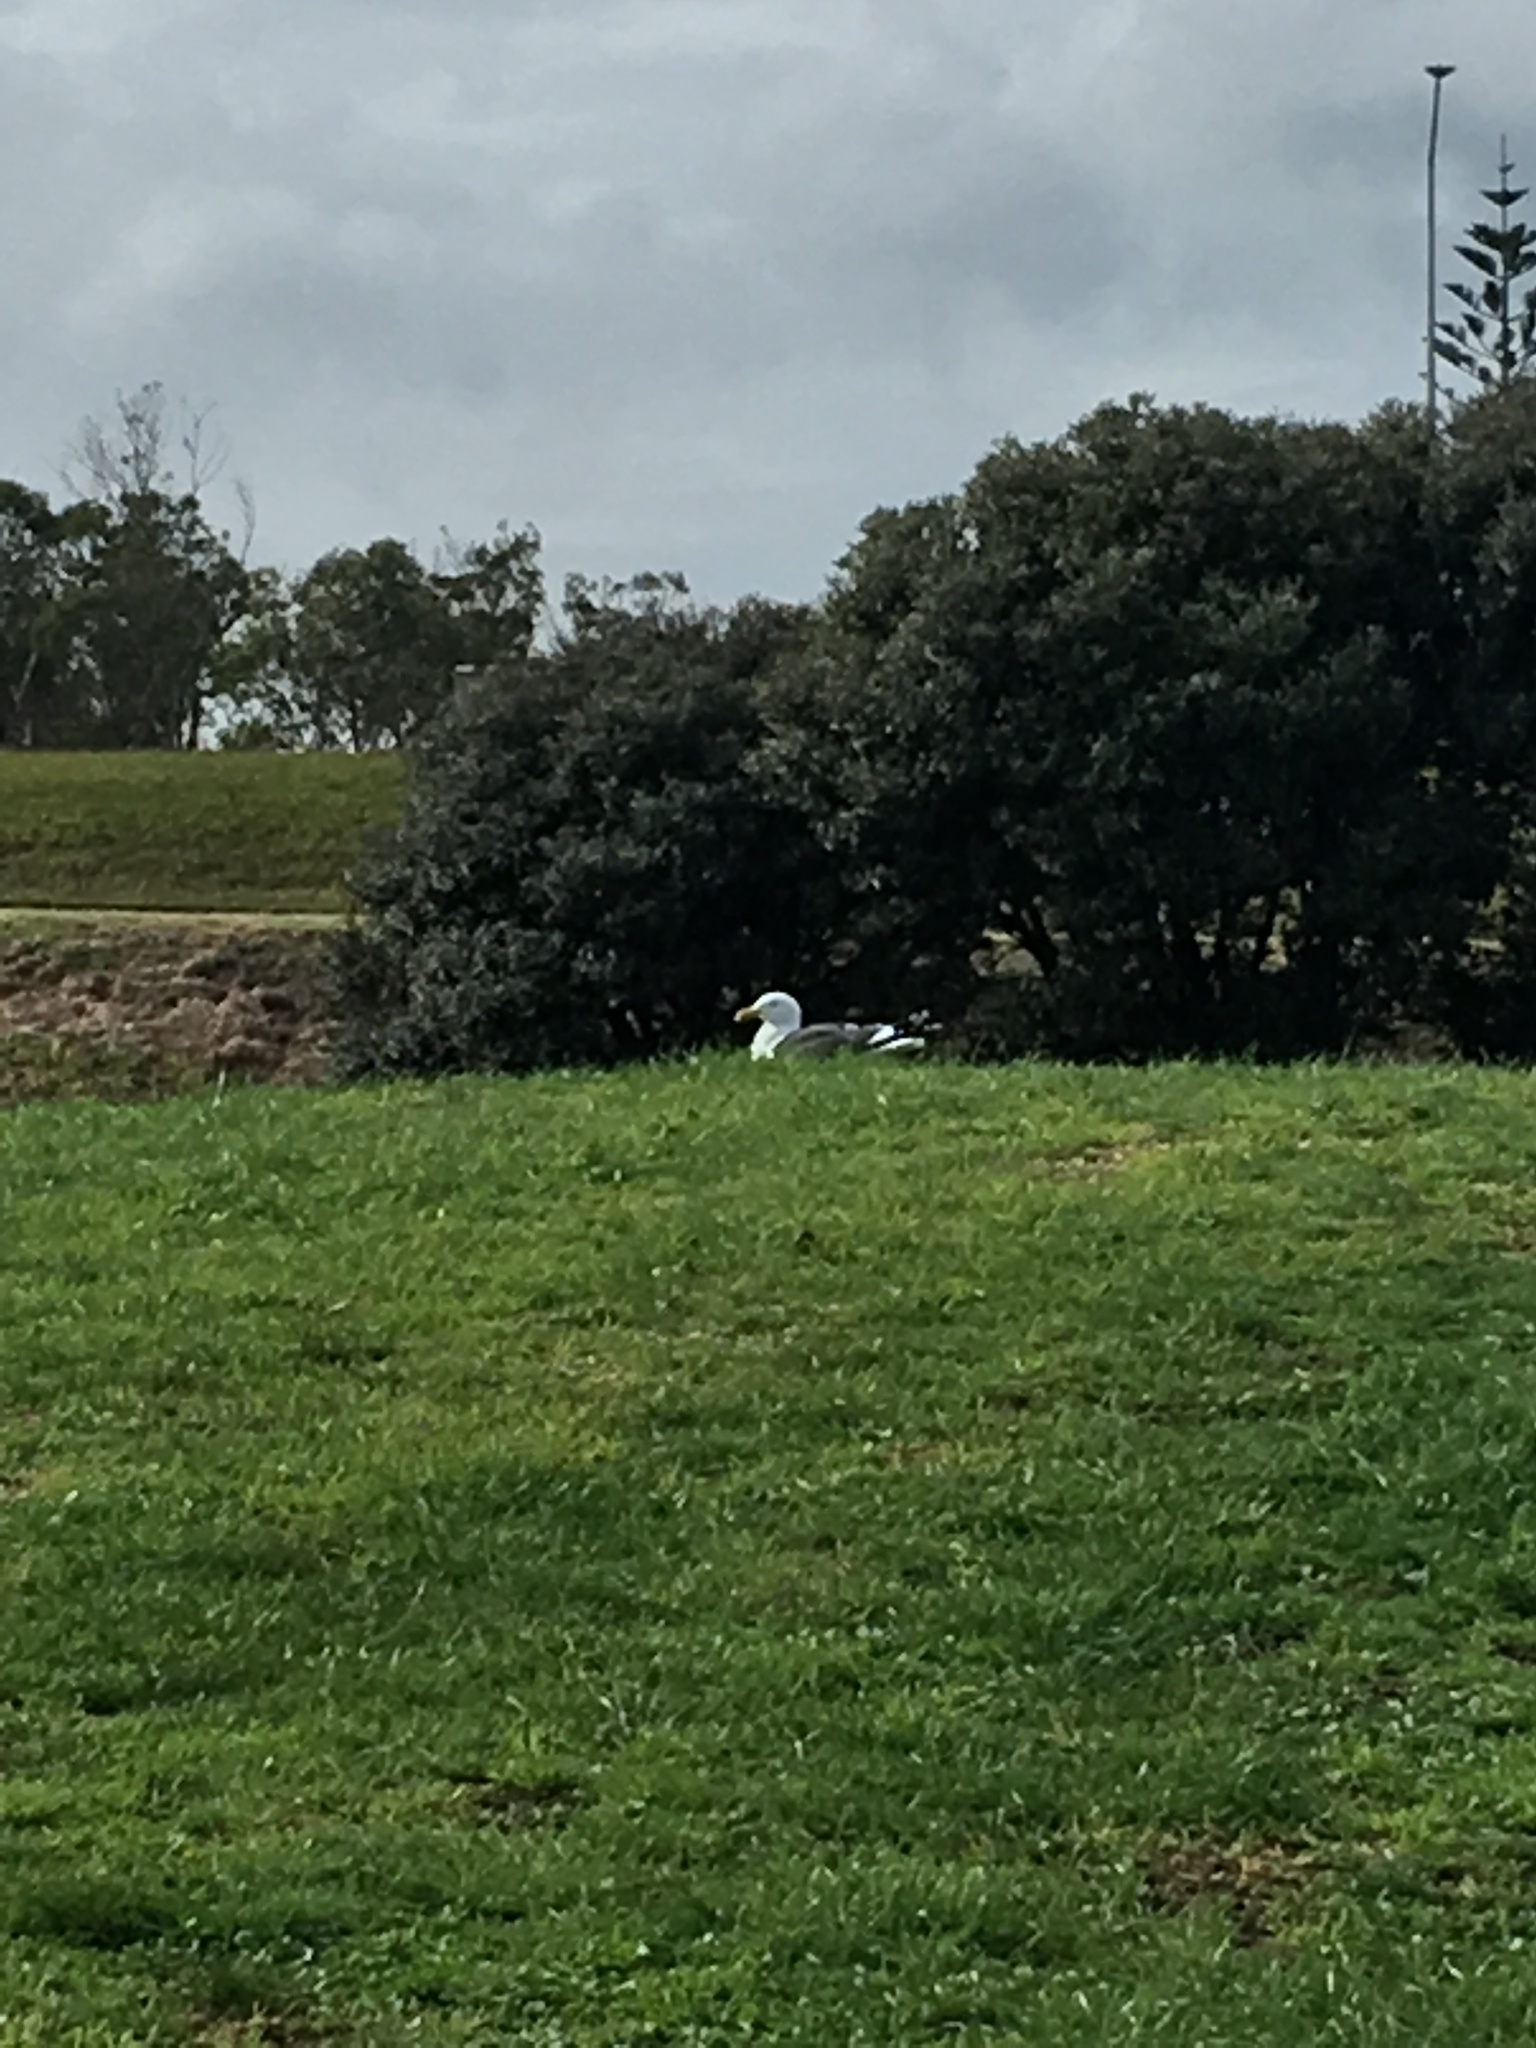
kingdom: Animalia
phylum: Chordata
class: Aves
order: Charadriiformes
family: Laridae
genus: Larus
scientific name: Larus dominicanus
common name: Kelp gull
